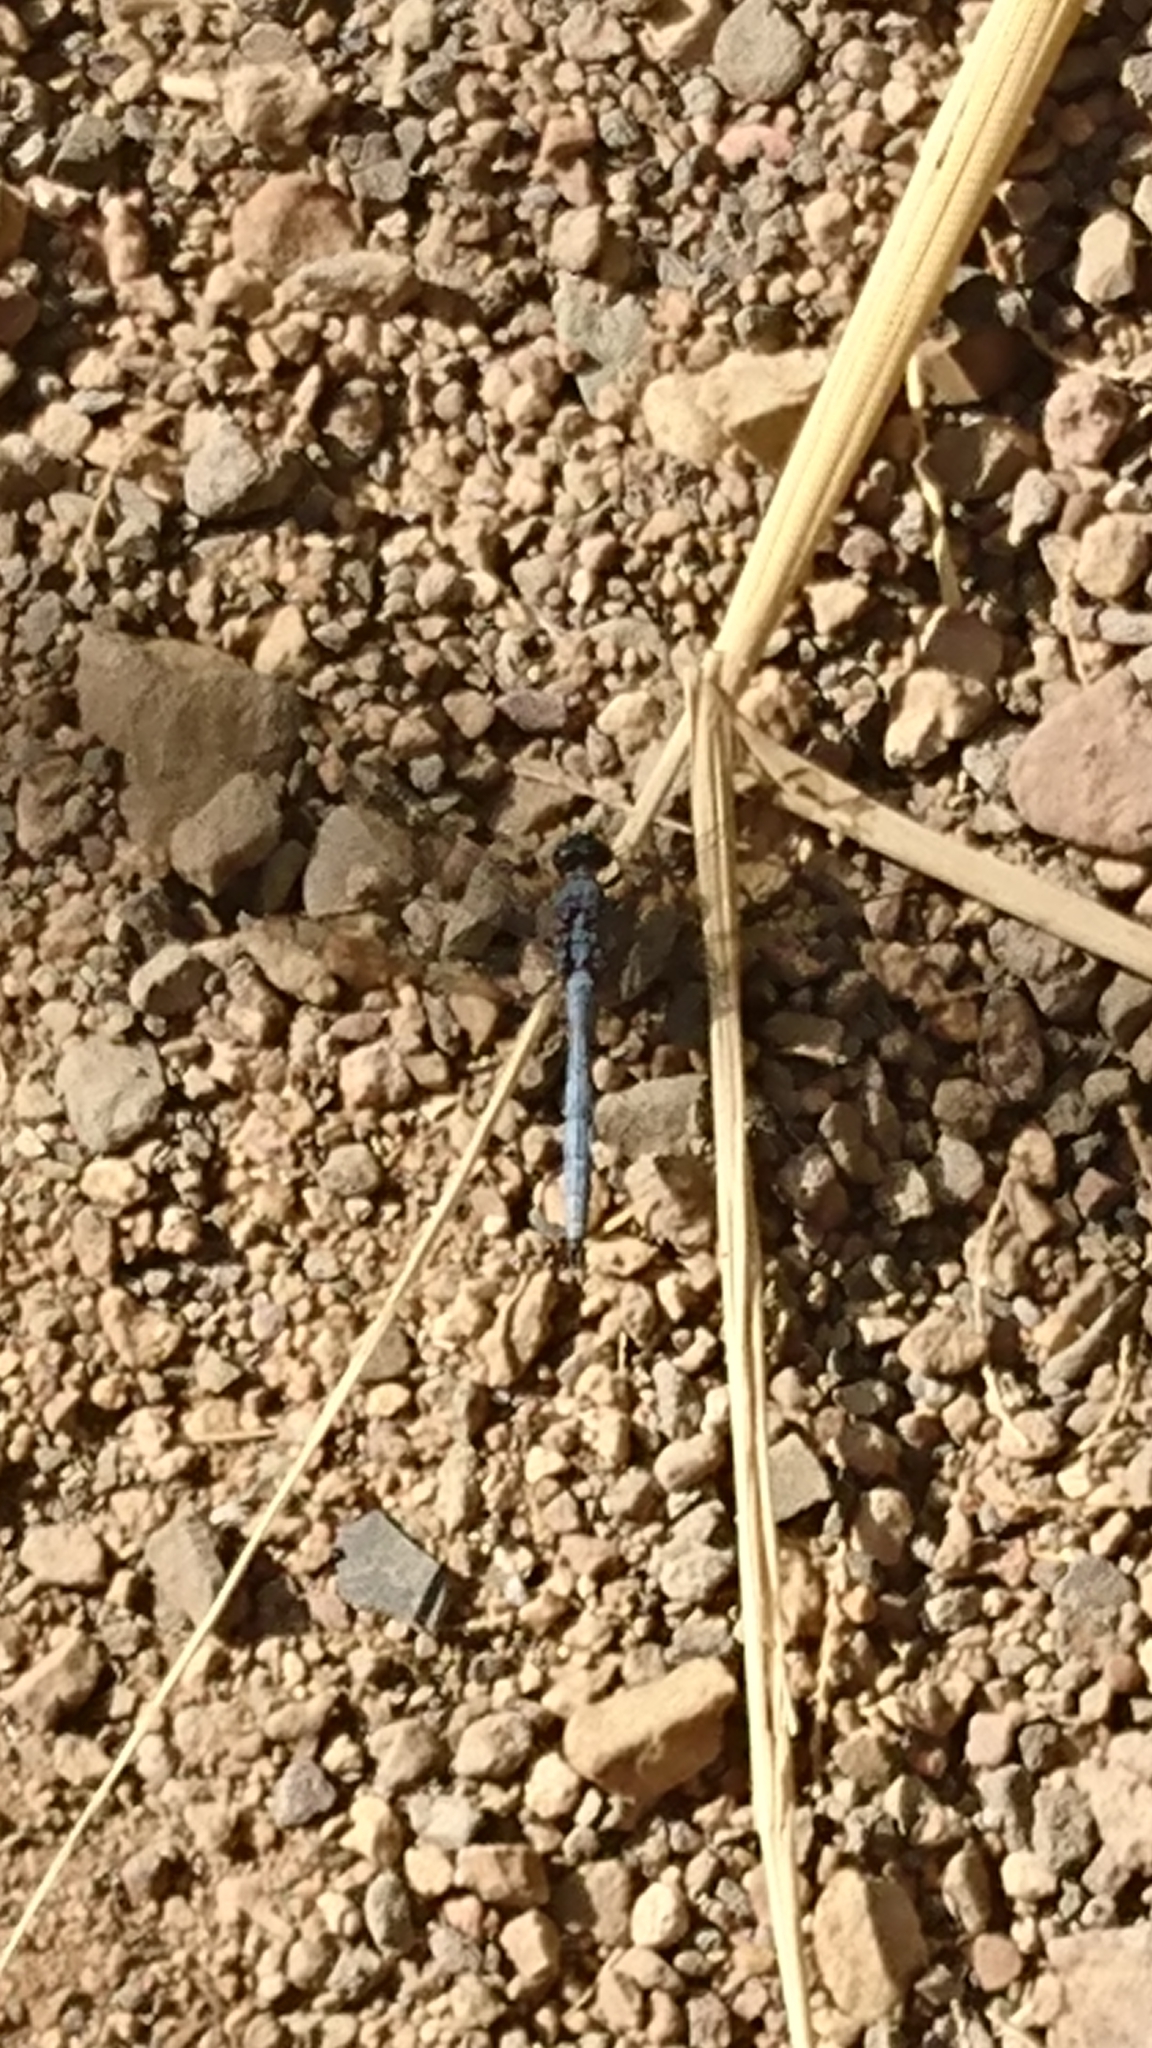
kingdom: Animalia
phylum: Arthropoda
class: Insecta
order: Odonata
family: Libellulidae
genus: Orthetrum
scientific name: Orthetrum chrysostigma
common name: Epaulet skimmer
